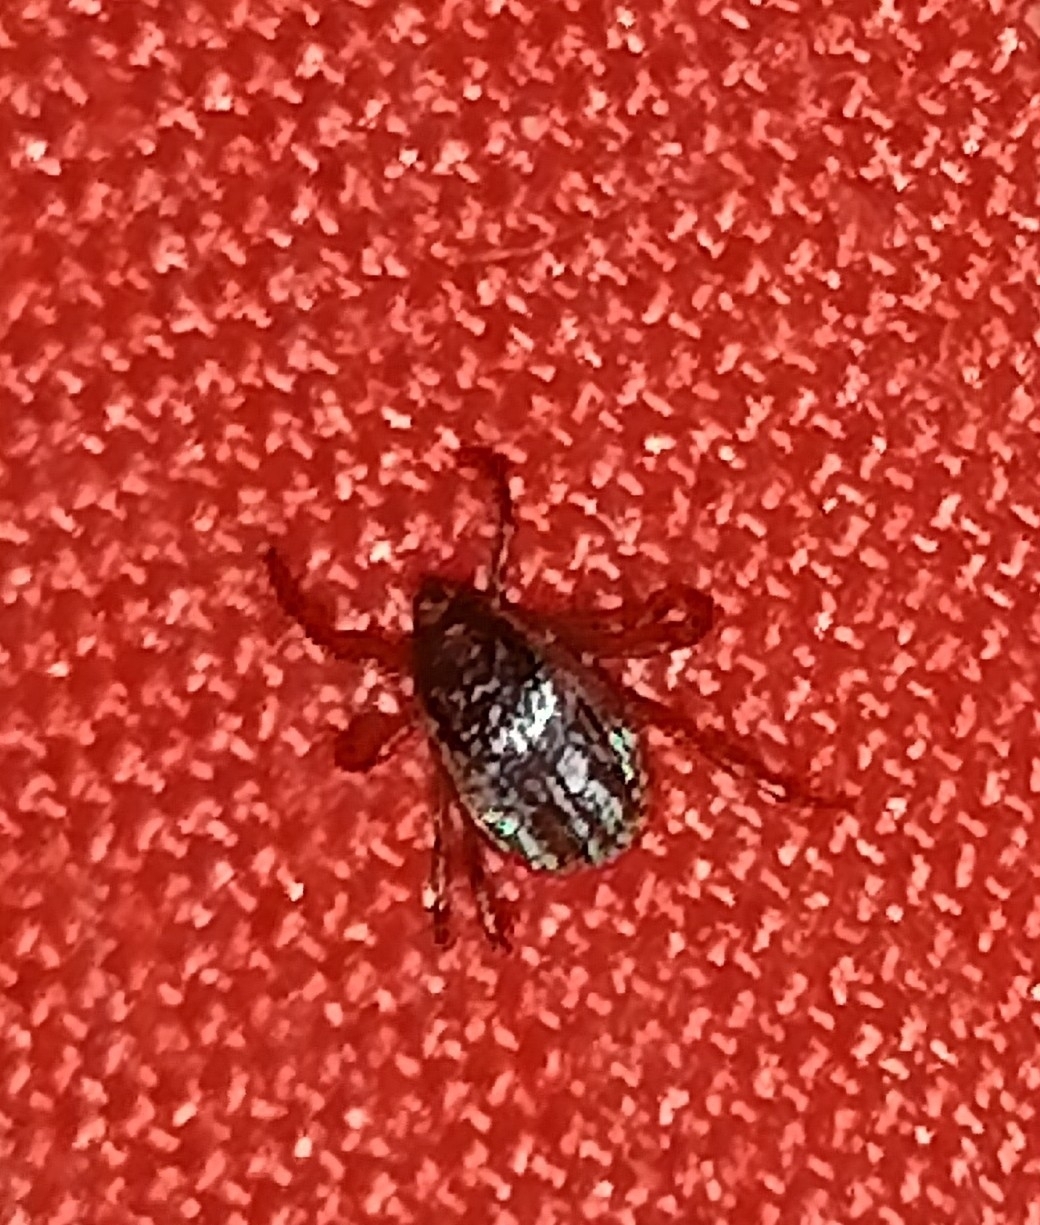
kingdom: Animalia
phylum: Arthropoda
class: Arachnida
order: Ixodida
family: Ixodidae
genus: Rhipicephalus
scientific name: Rhipicephalus sanguineus
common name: Brown dog tick
